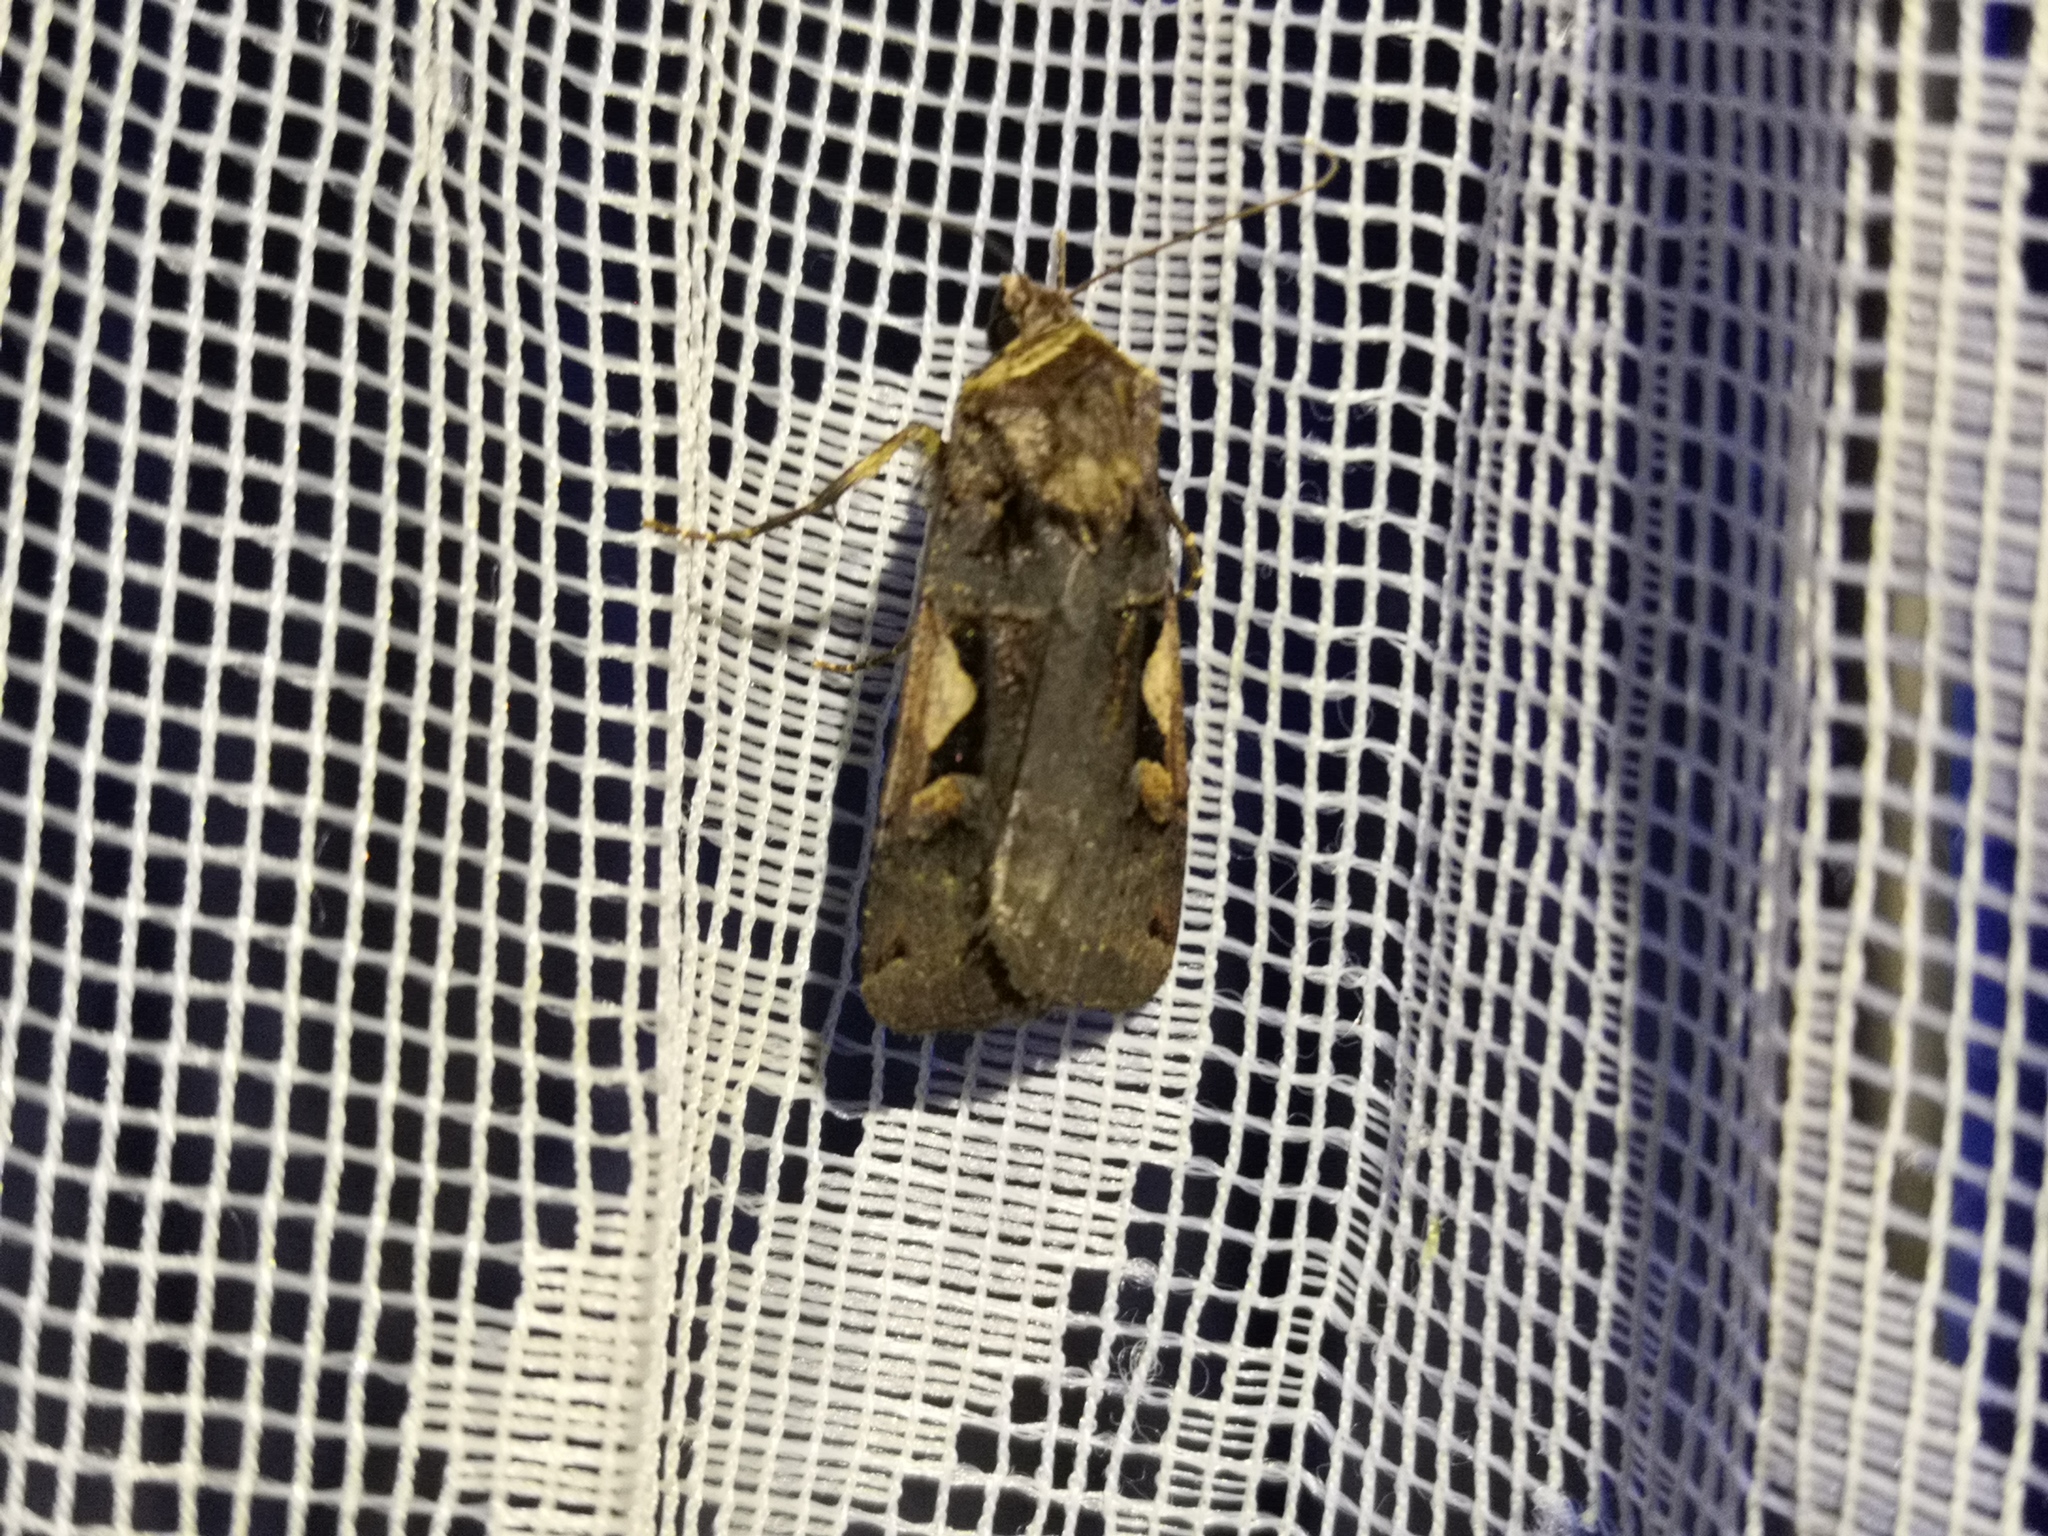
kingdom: Animalia
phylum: Arthropoda
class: Insecta
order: Lepidoptera
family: Noctuidae
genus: Xestia
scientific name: Xestia c-nigrum
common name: Setaceous hebrew character
